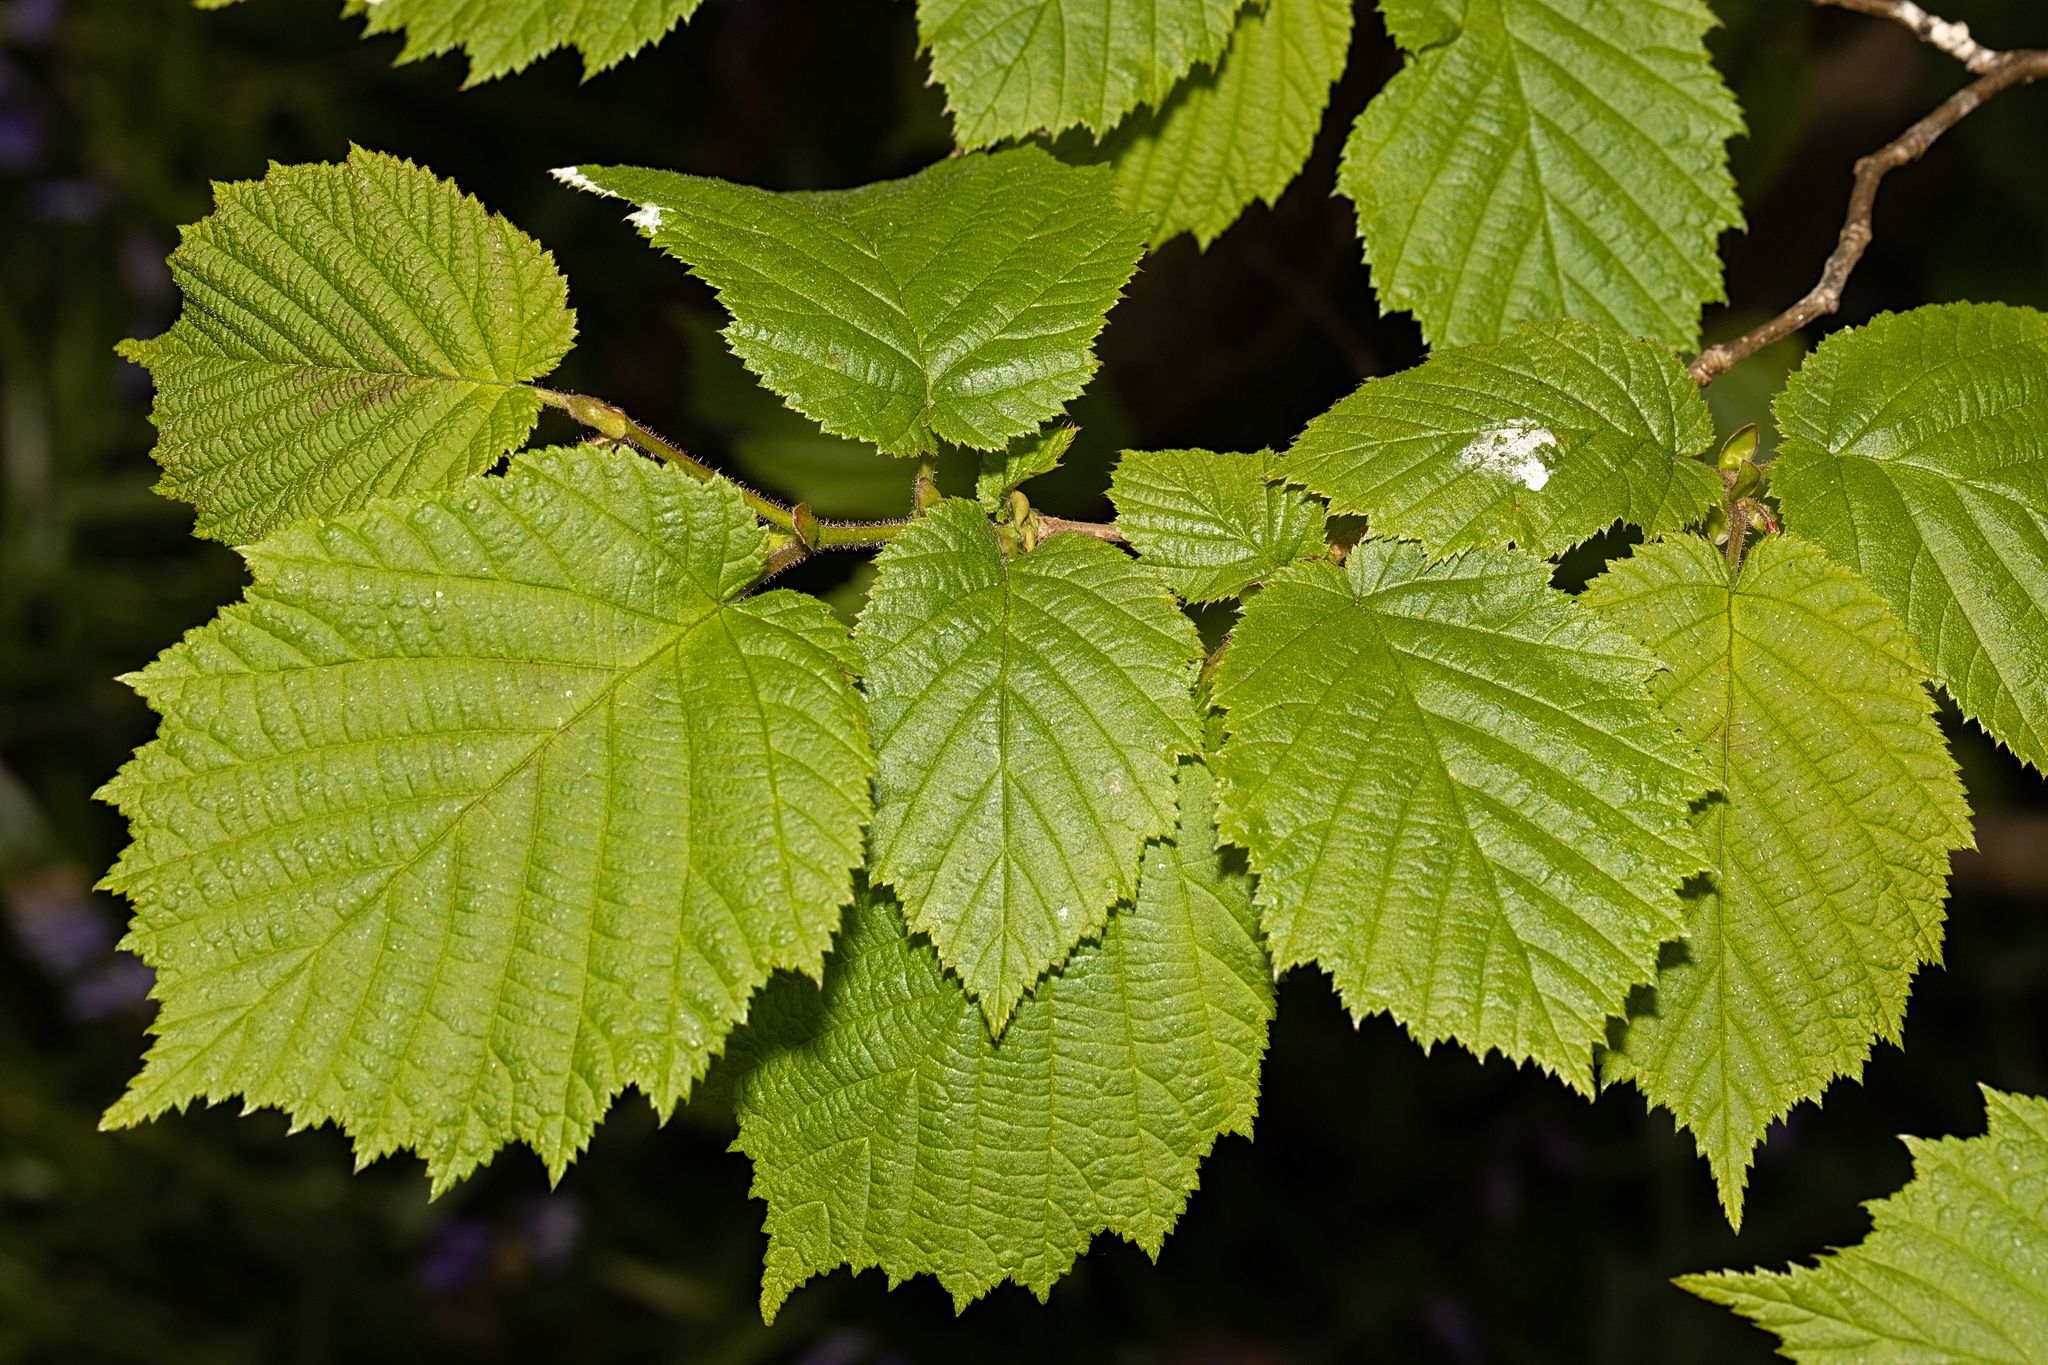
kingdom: Plantae
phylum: Tracheophyta
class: Magnoliopsida
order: Fagales
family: Betulaceae
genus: Corylus
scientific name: Corylus avellana
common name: European hazel
